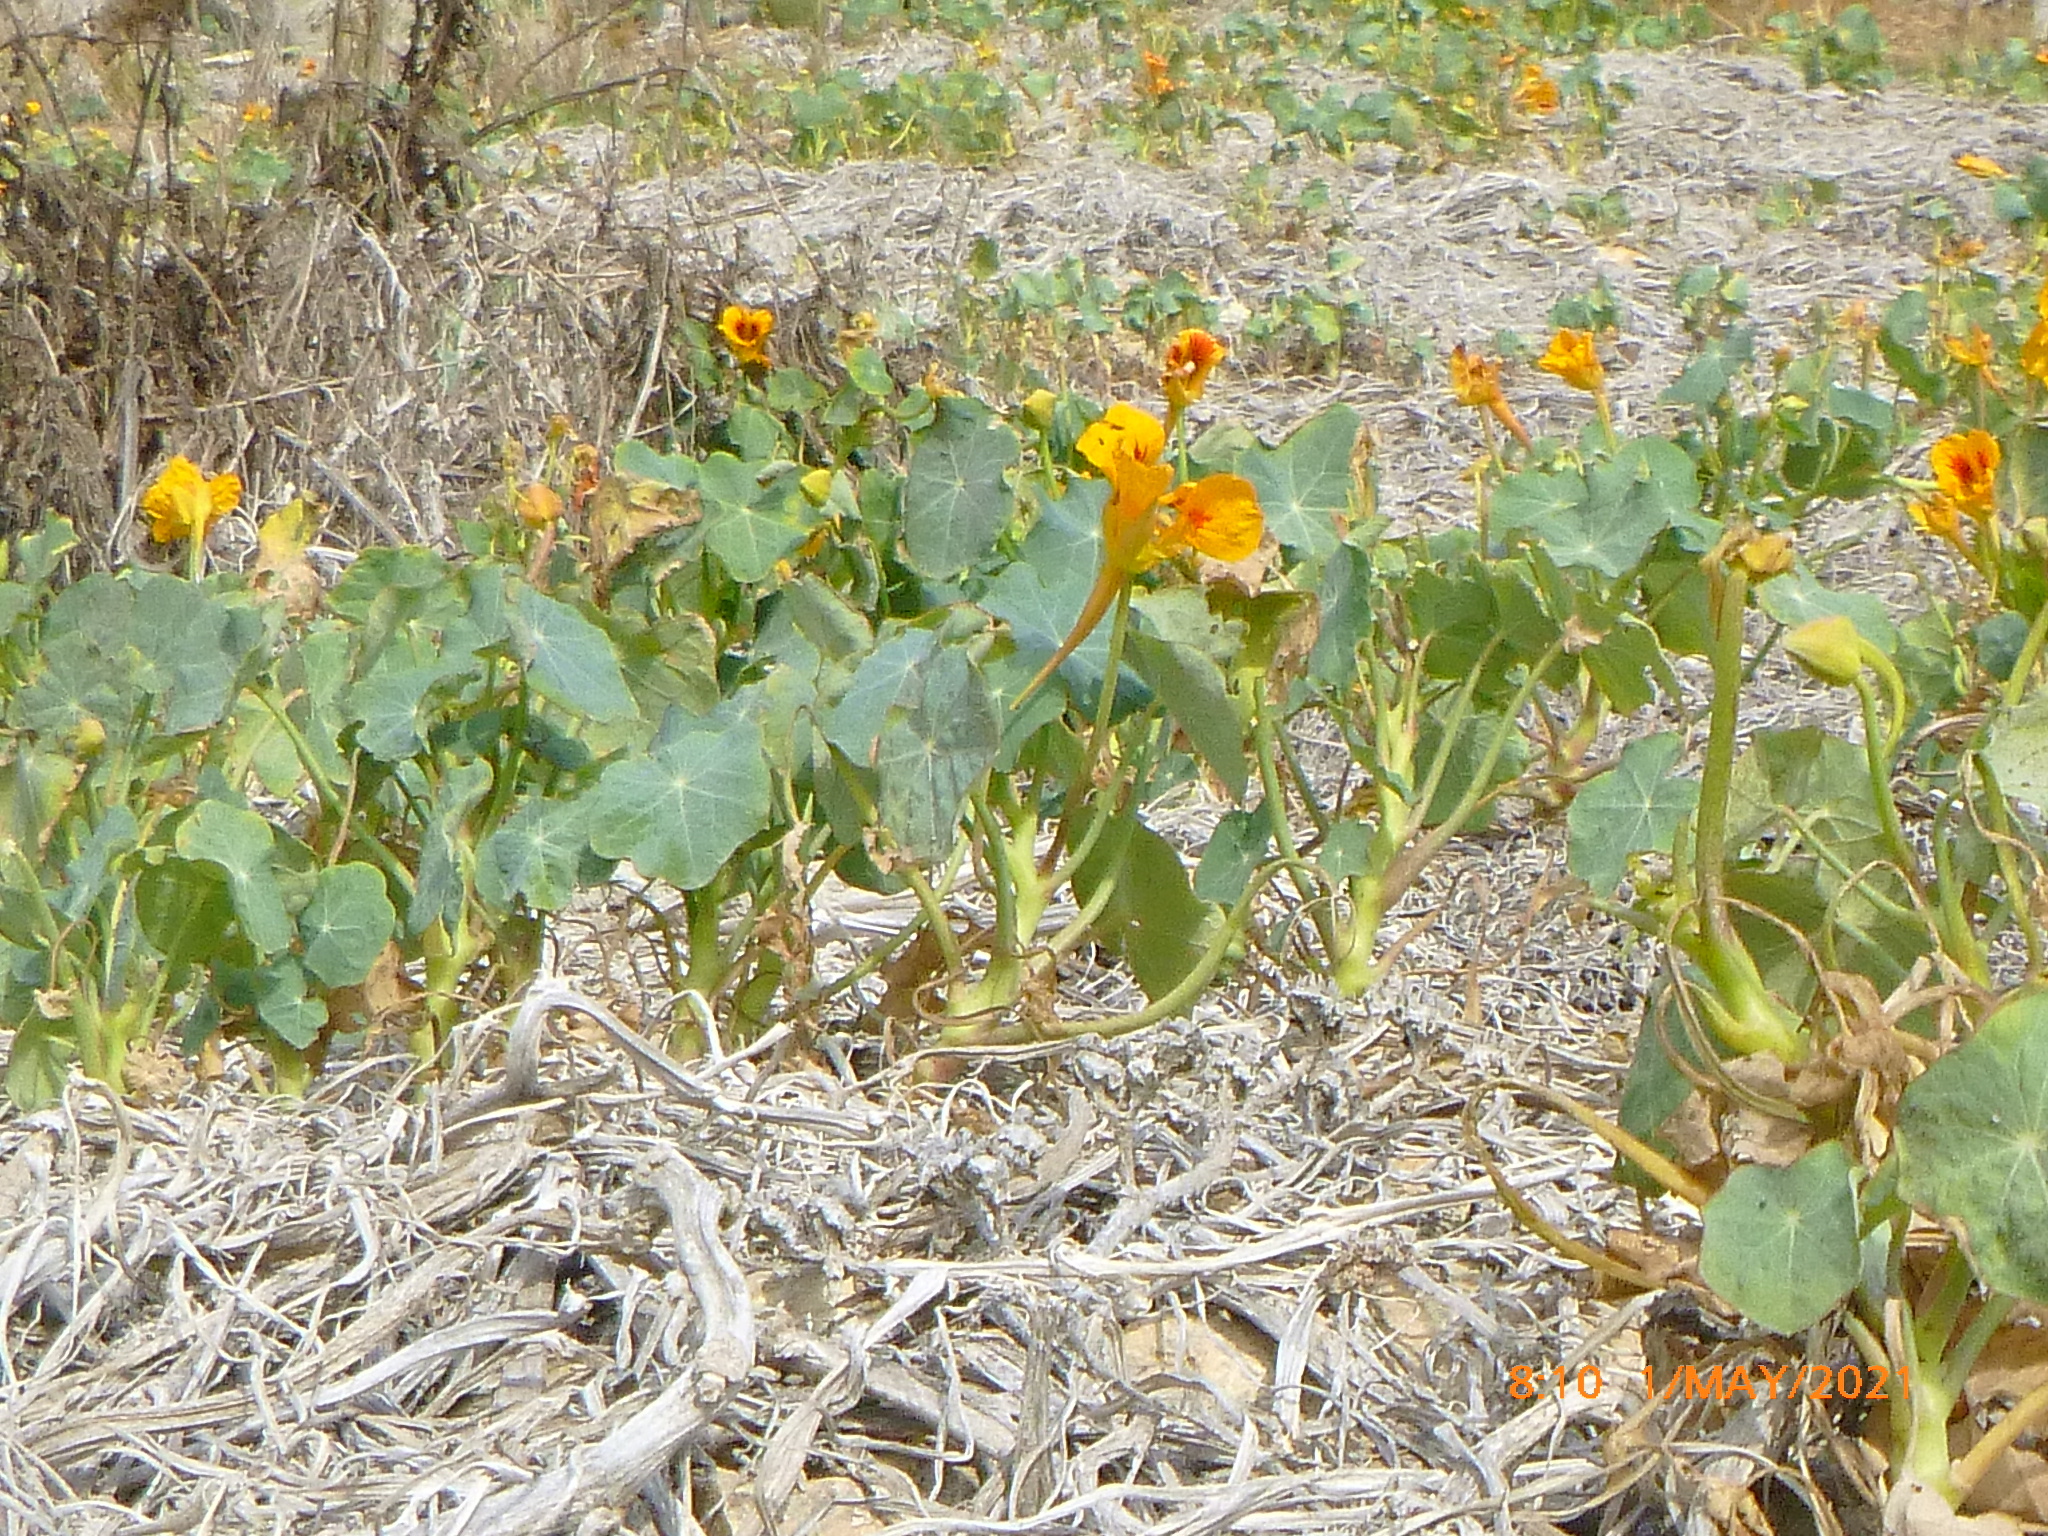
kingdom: Plantae
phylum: Tracheophyta
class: Magnoliopsida
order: Brassicales
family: Tropaeolaceae
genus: Tropaeolum
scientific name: Tropaeolum majus
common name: Nasturtium
